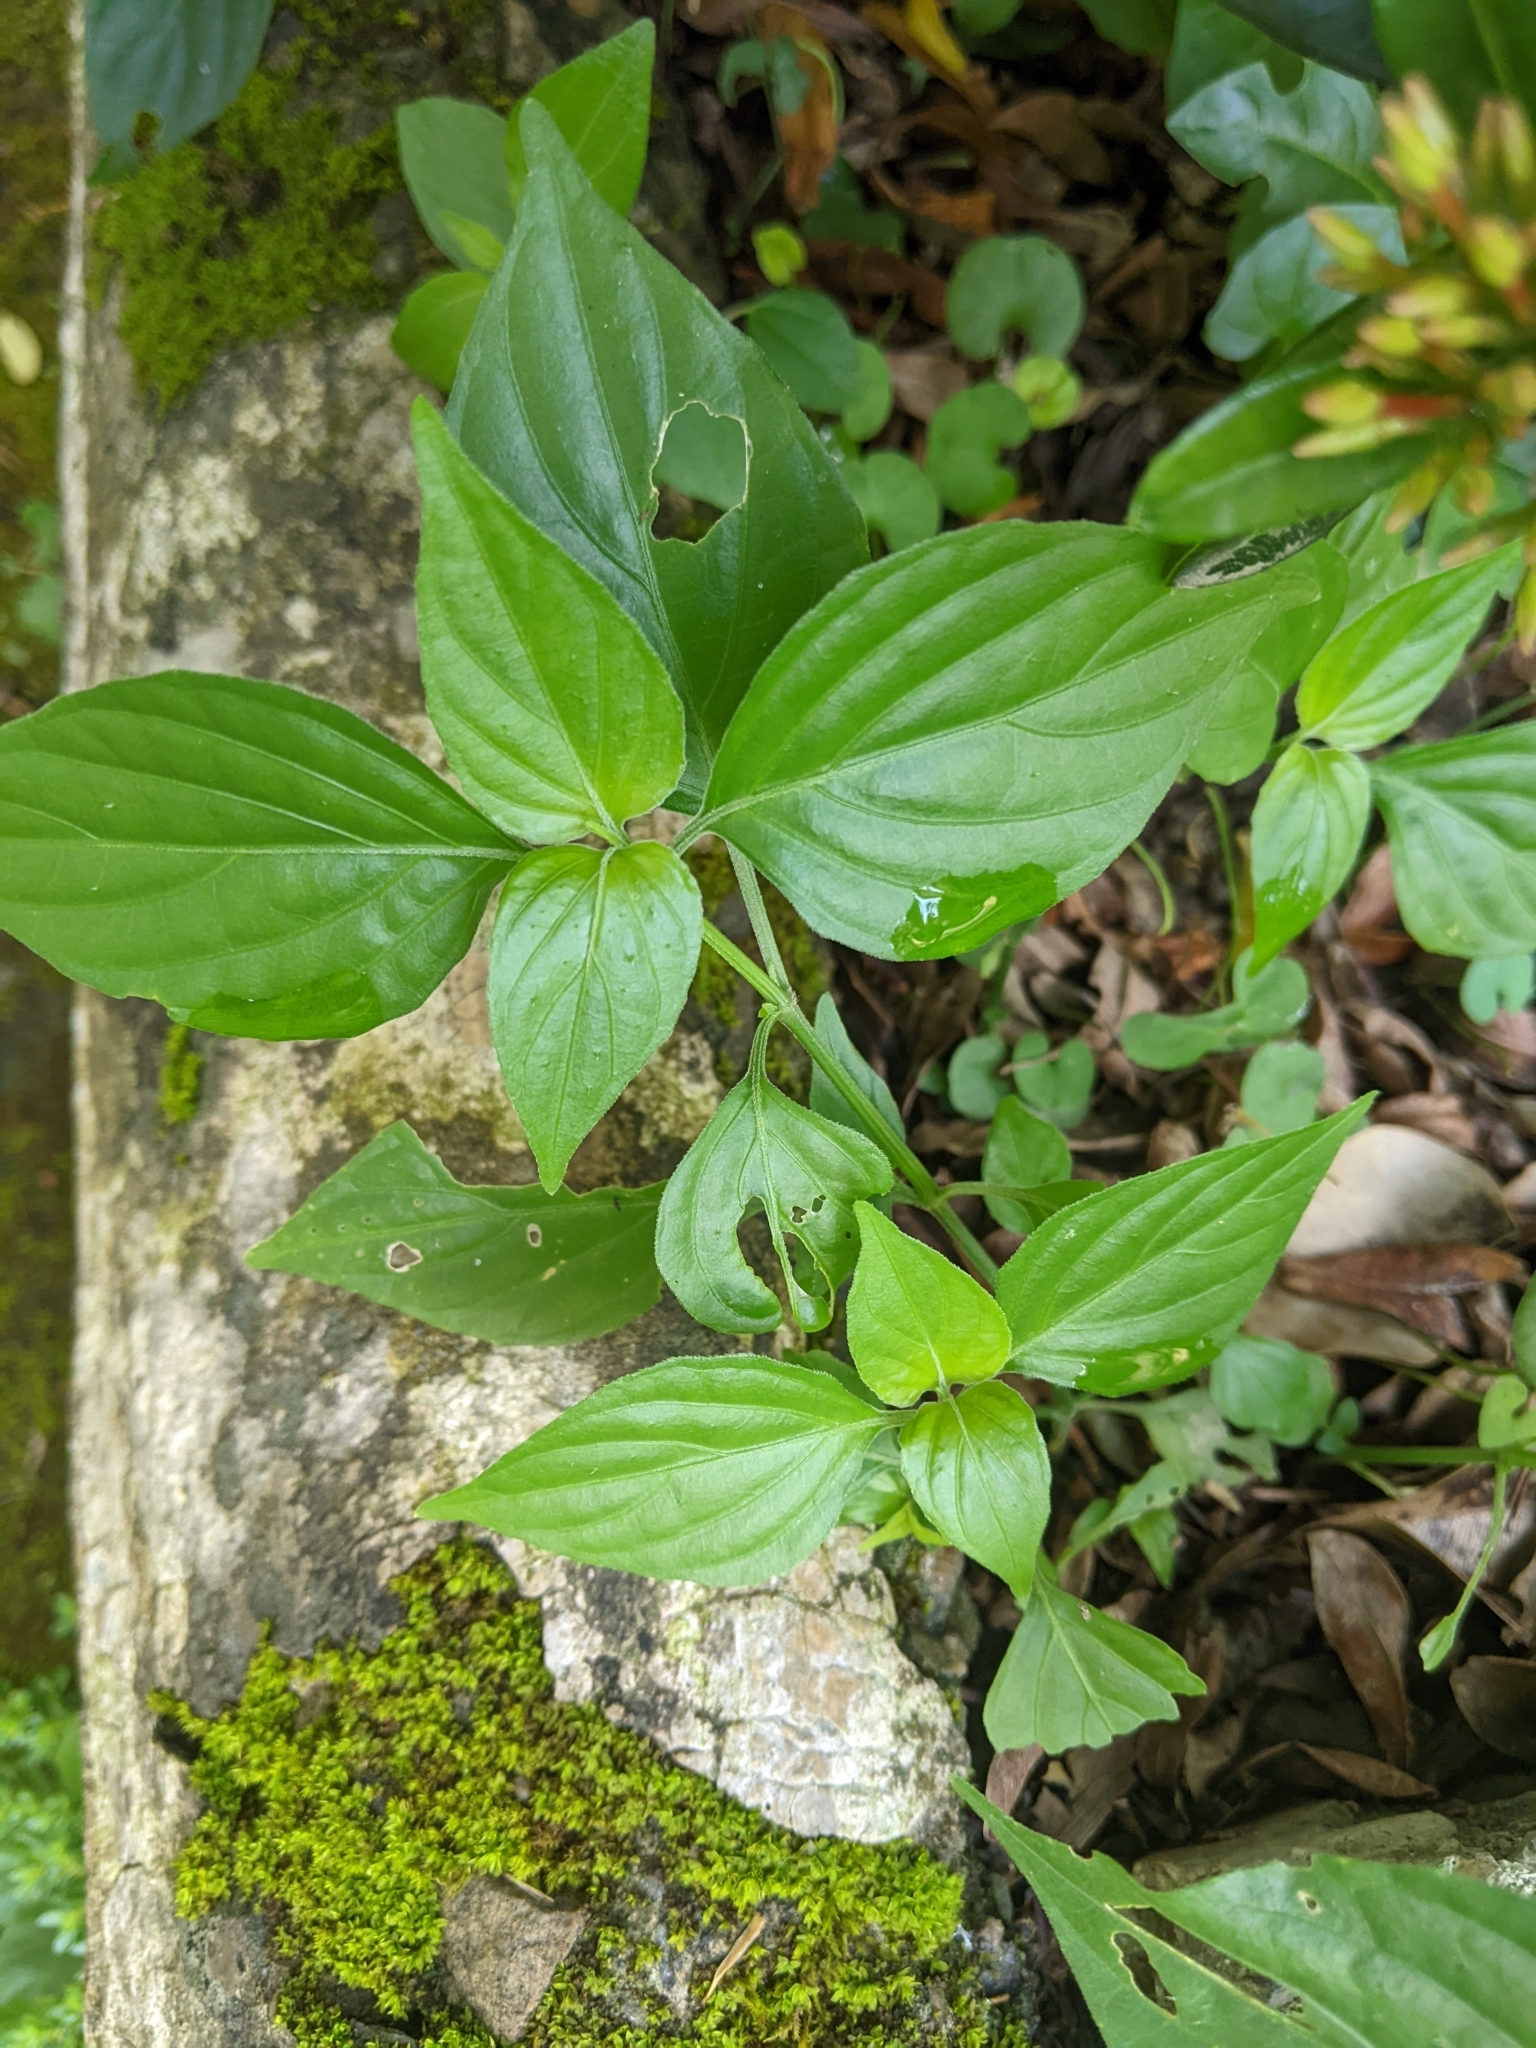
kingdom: Plantae
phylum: Tracheophyta
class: Magnoliopsida
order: Lamiales
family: Acanthaceae
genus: Dicliptera
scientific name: Dicliptera chinensis
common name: Chinese foldwing
